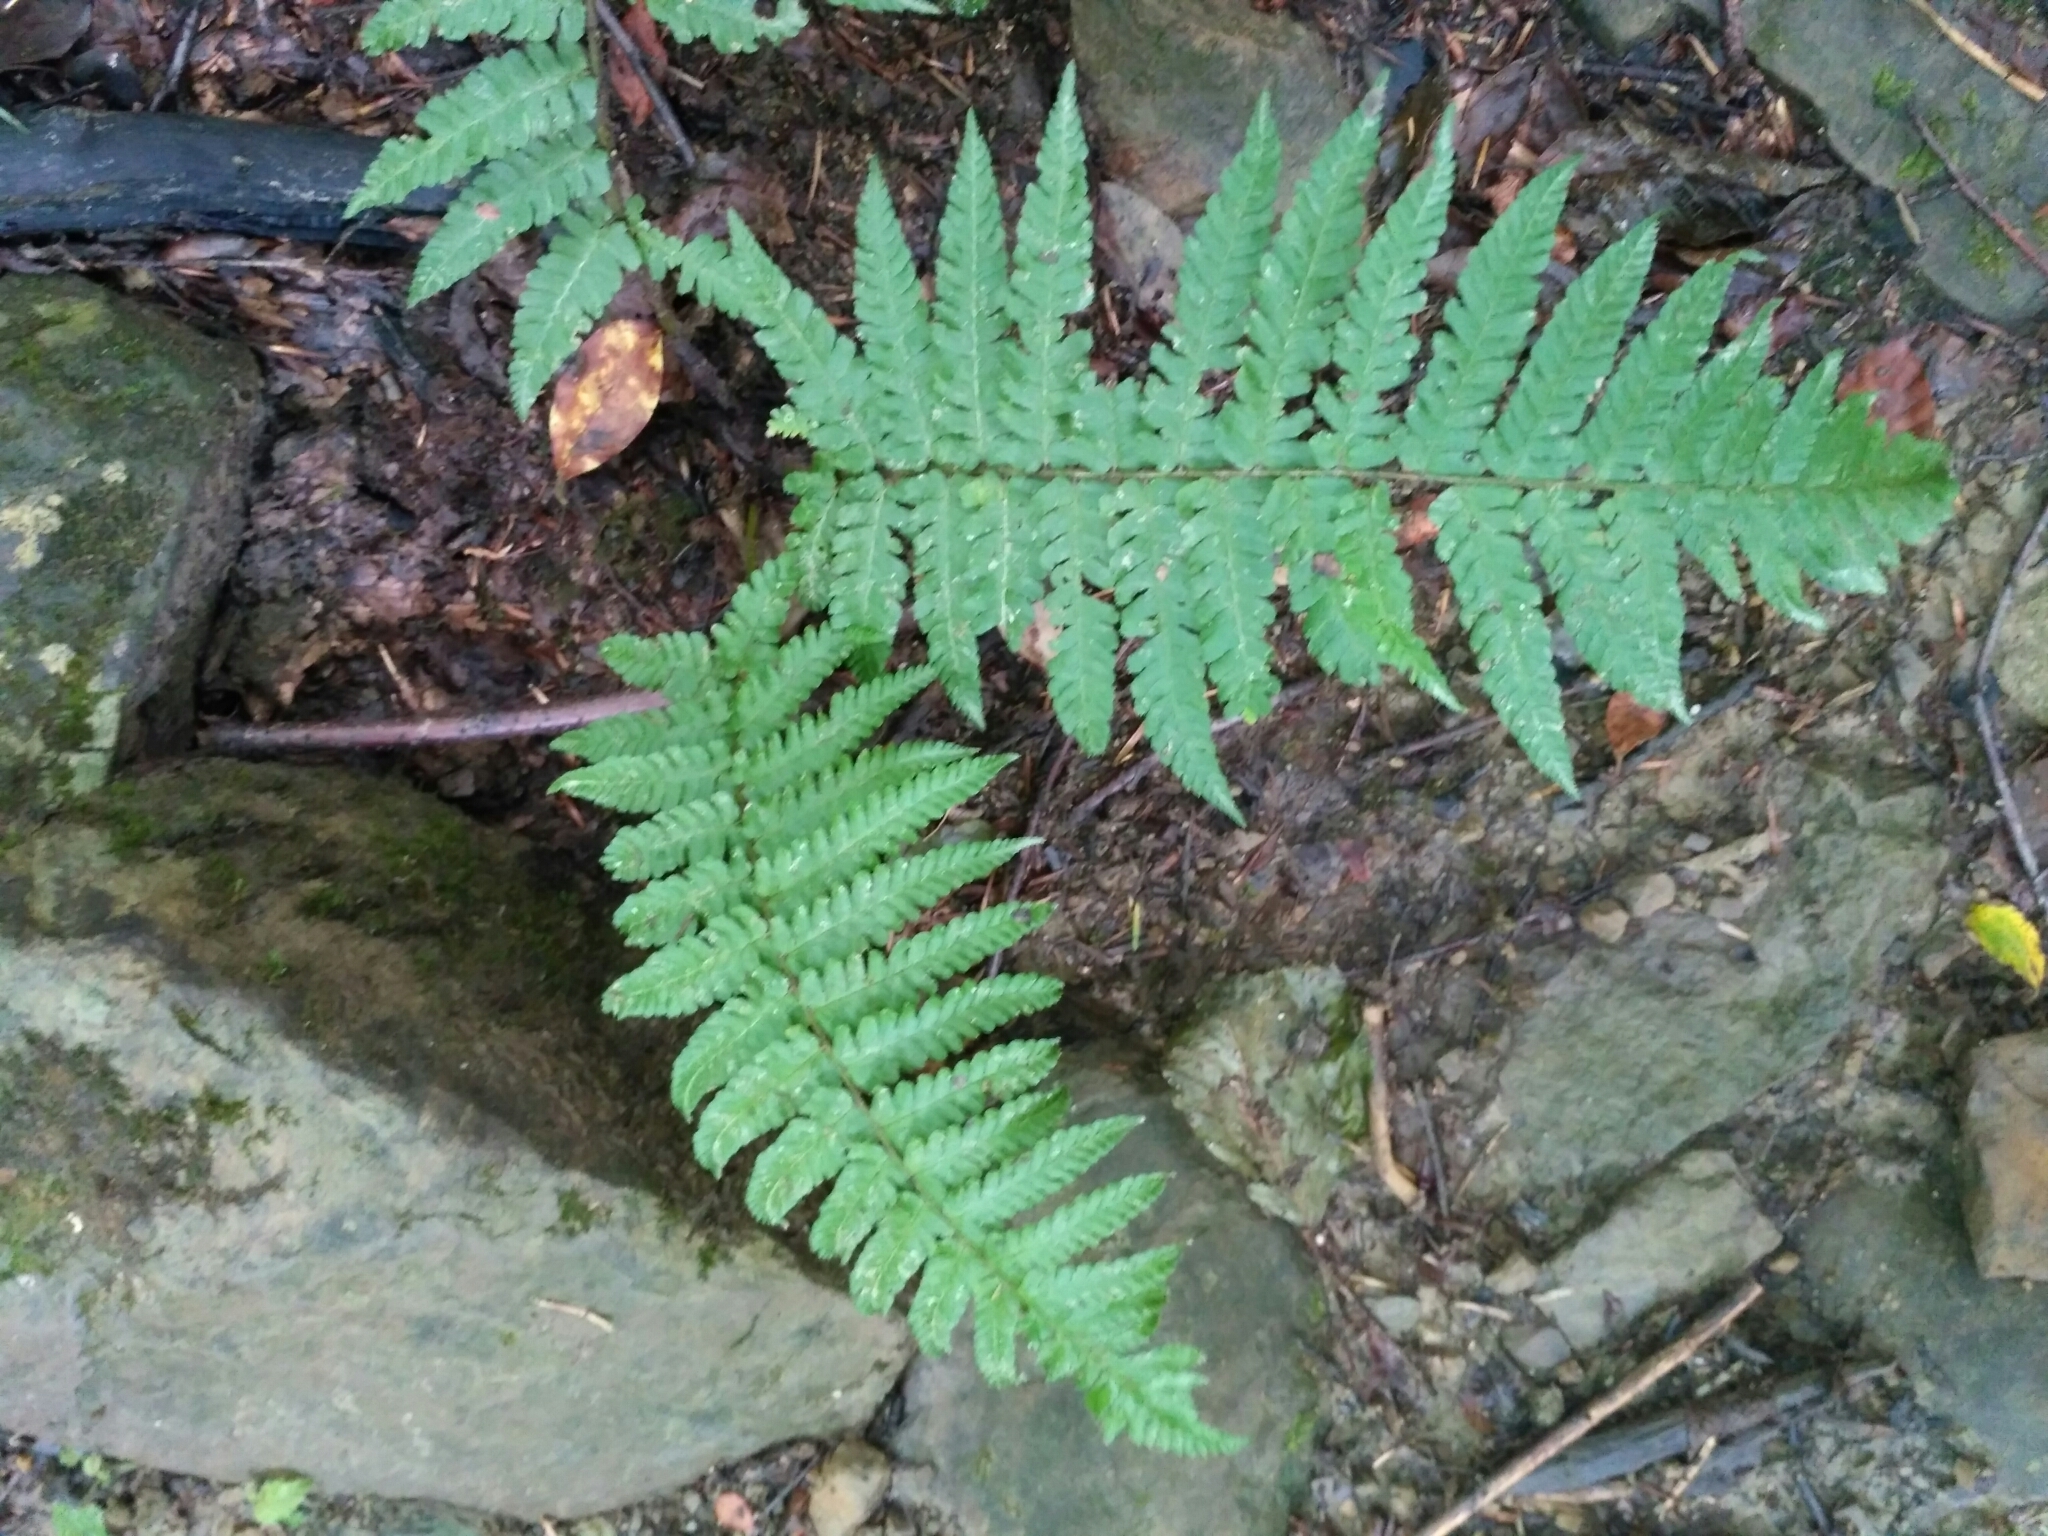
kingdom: Plantae
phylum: Tracheophyta
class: Polypodiopsida
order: Polypodiales
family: Dryopteridaceae
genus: Dryopteris
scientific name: Dryopteris filix-mas
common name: Male fern
